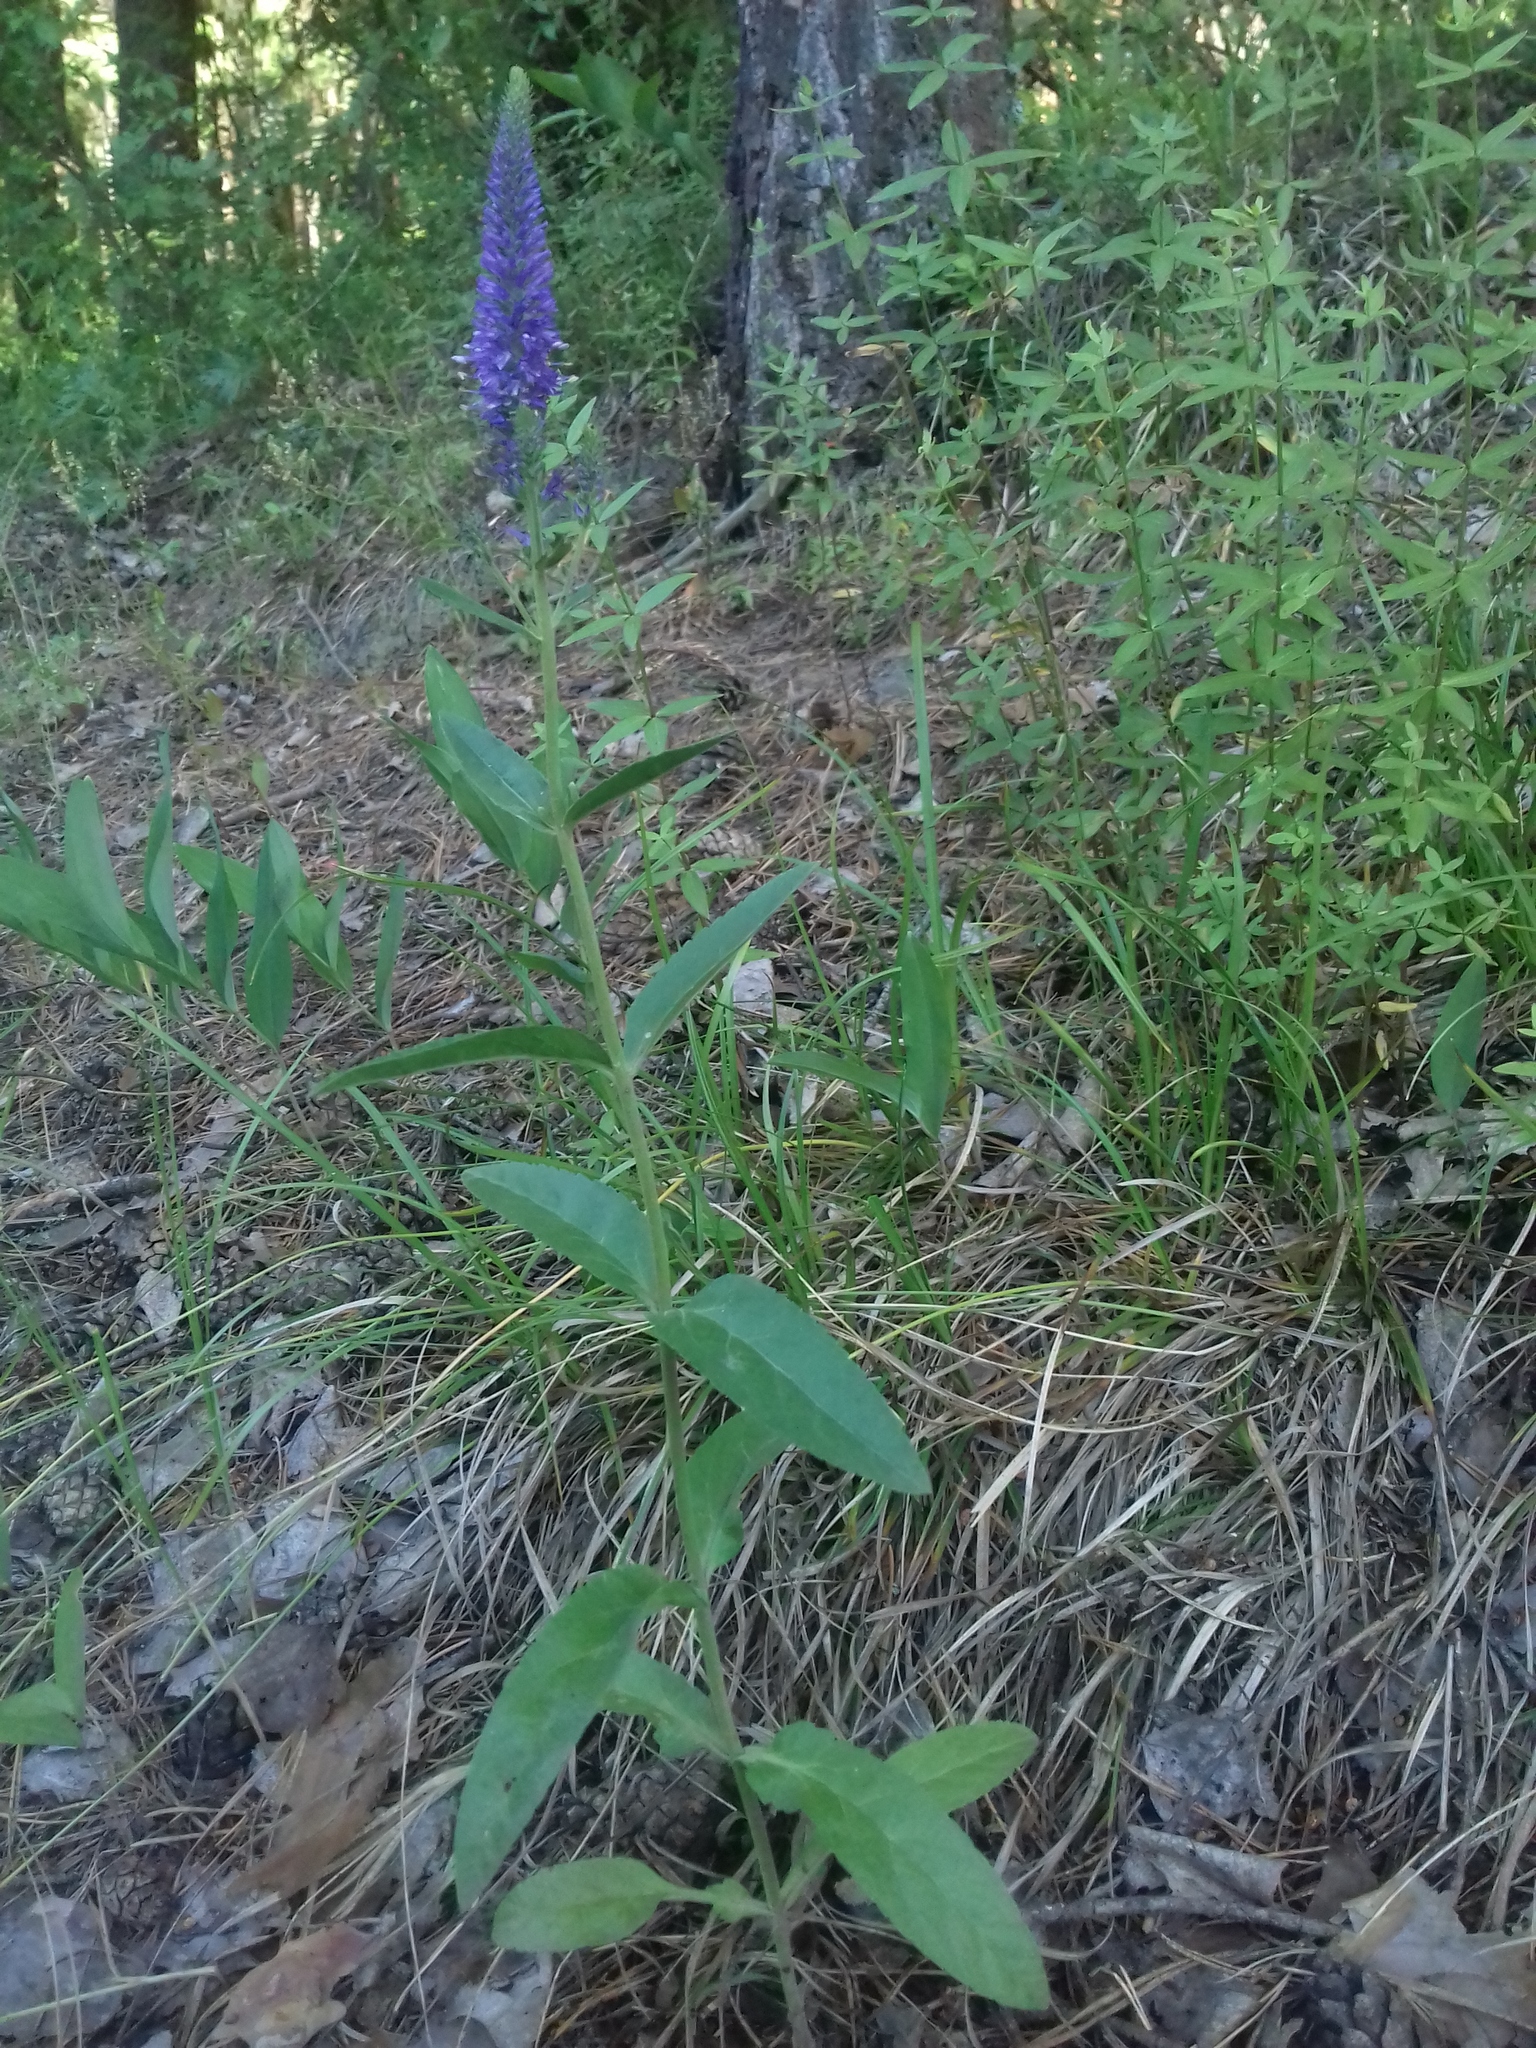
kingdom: Plantae
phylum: Tracheophyta
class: Magnoliopsida
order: Lamiales
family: Plantaginaceae
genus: Veronica
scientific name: Veronica spicata
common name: Spiked speedwell
